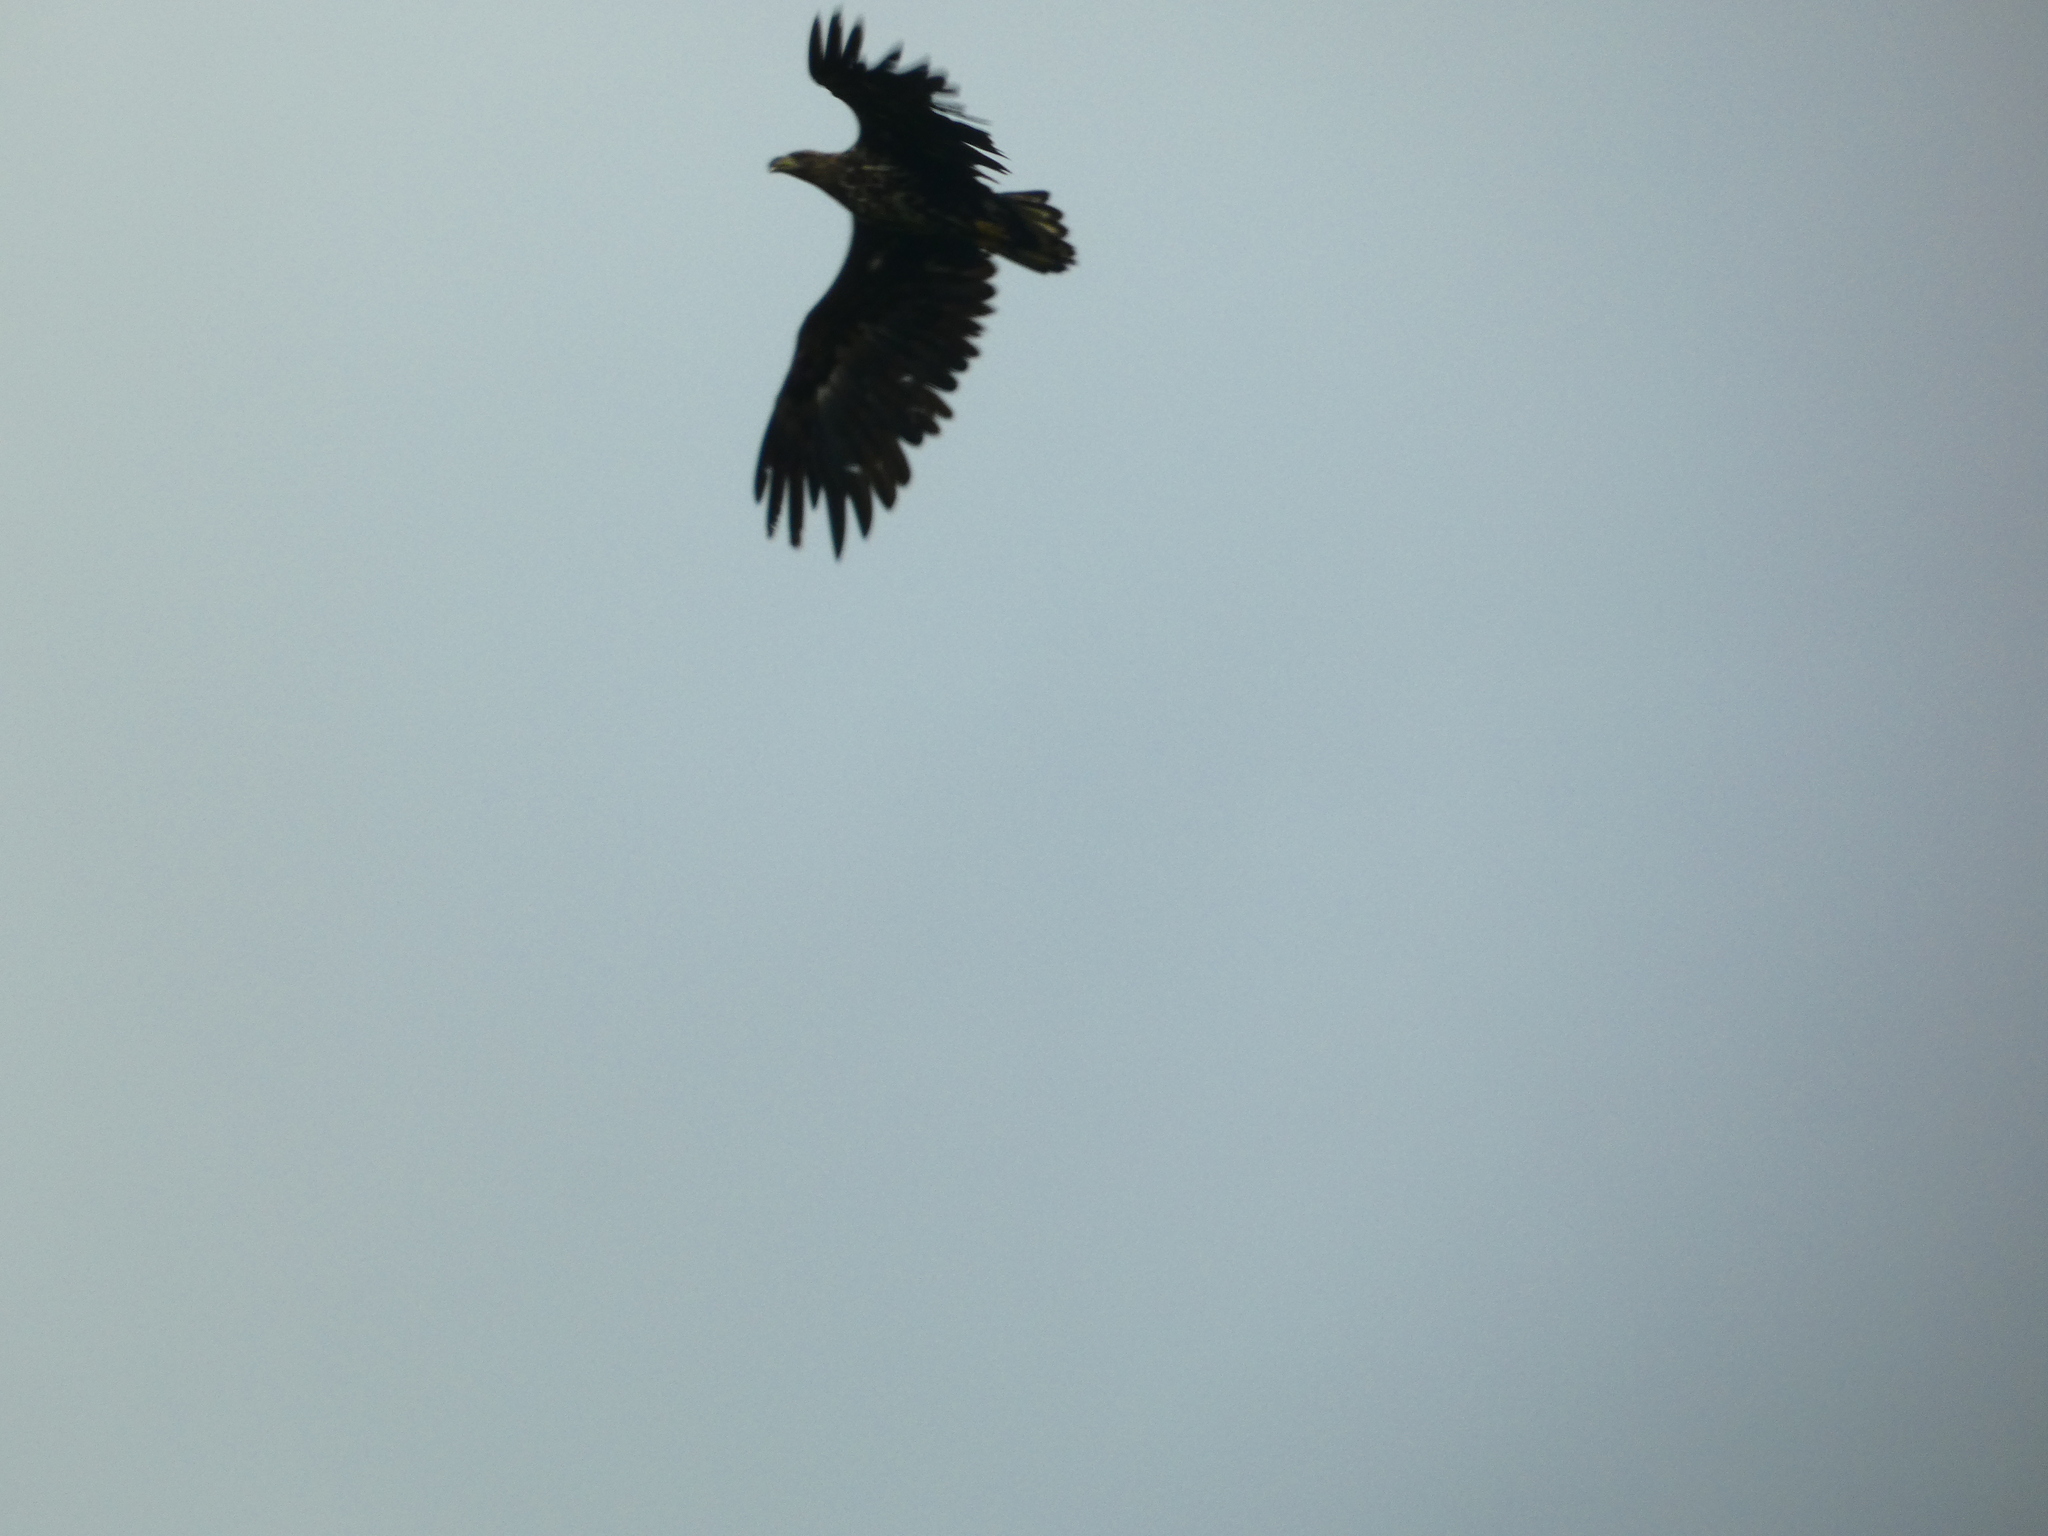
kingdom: Animalia
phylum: Chordata
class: Aves
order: Accipitriformes
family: Accipitridae
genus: Haliaeetus
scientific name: Haliaeetus albicilla
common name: White-tailed eagle
